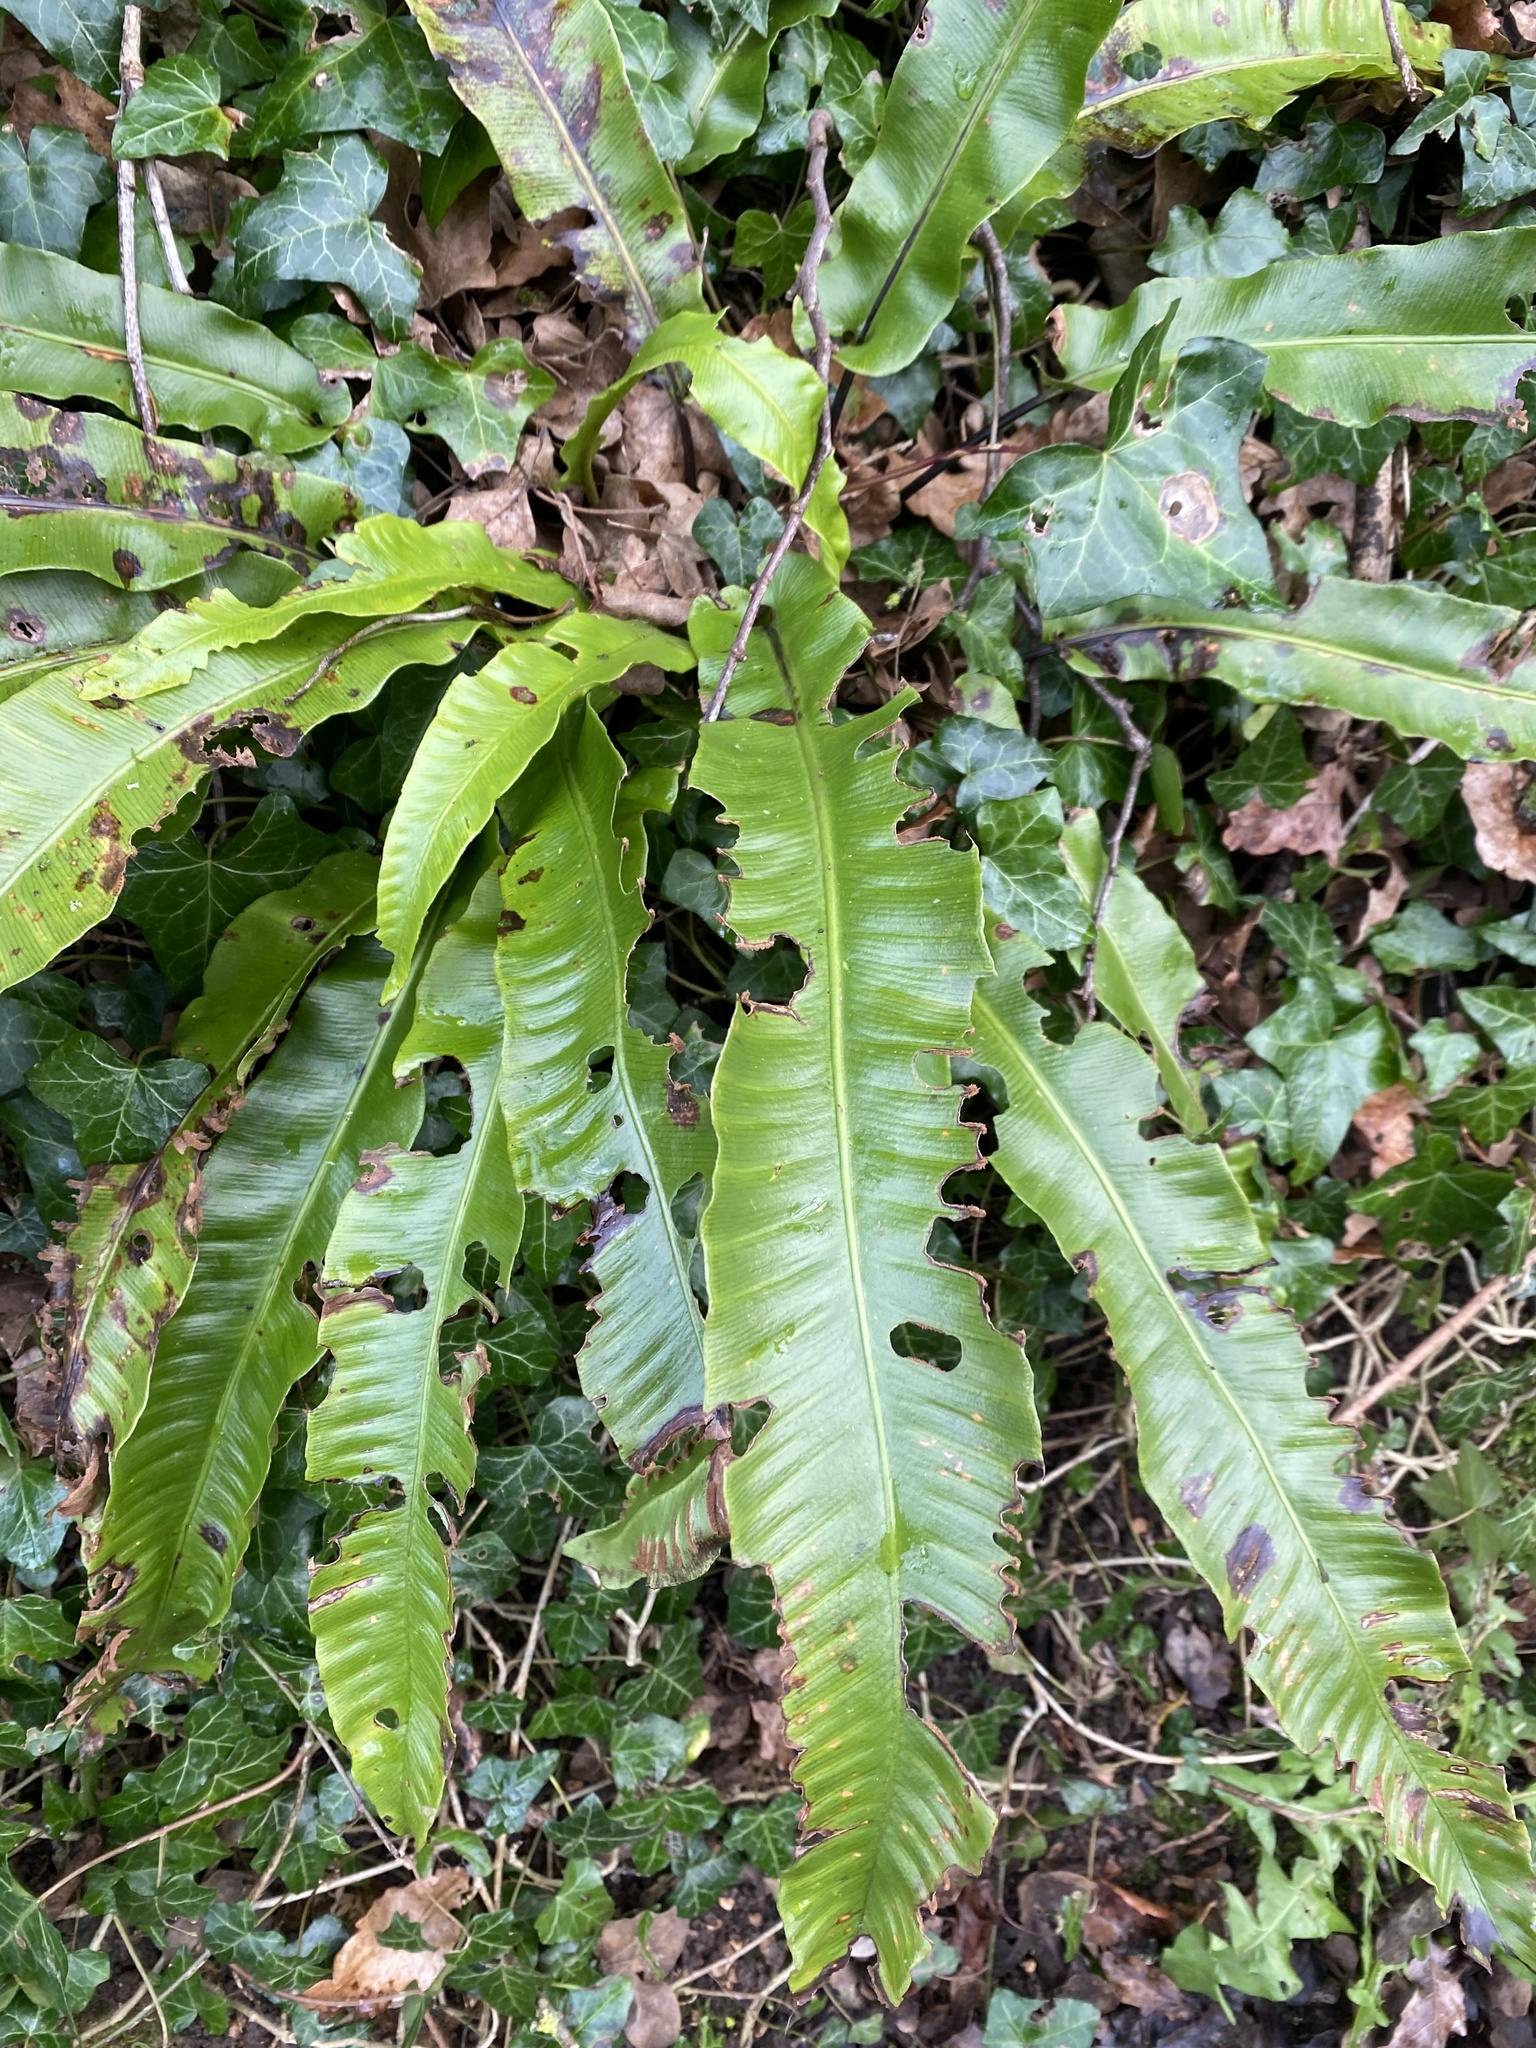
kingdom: Plantae
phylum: Tracheophyta
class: Polypodiopsida
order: Polypodiales
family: Aspleniaceae
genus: Asplenium
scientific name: Asplenium scolopendrium
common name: Hart's-tongue fern
